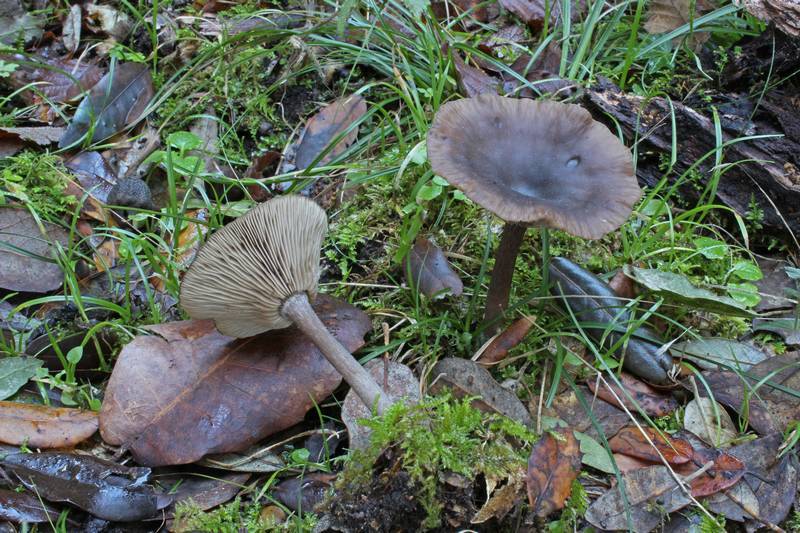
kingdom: Fungi
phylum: Basidiomycota
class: Agaricomycetes
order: Agaricales
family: Pseudoclitocybaceae
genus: Pseudoclitocybe
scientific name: Pseudoclitocybe cyathiformis
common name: Goblet
